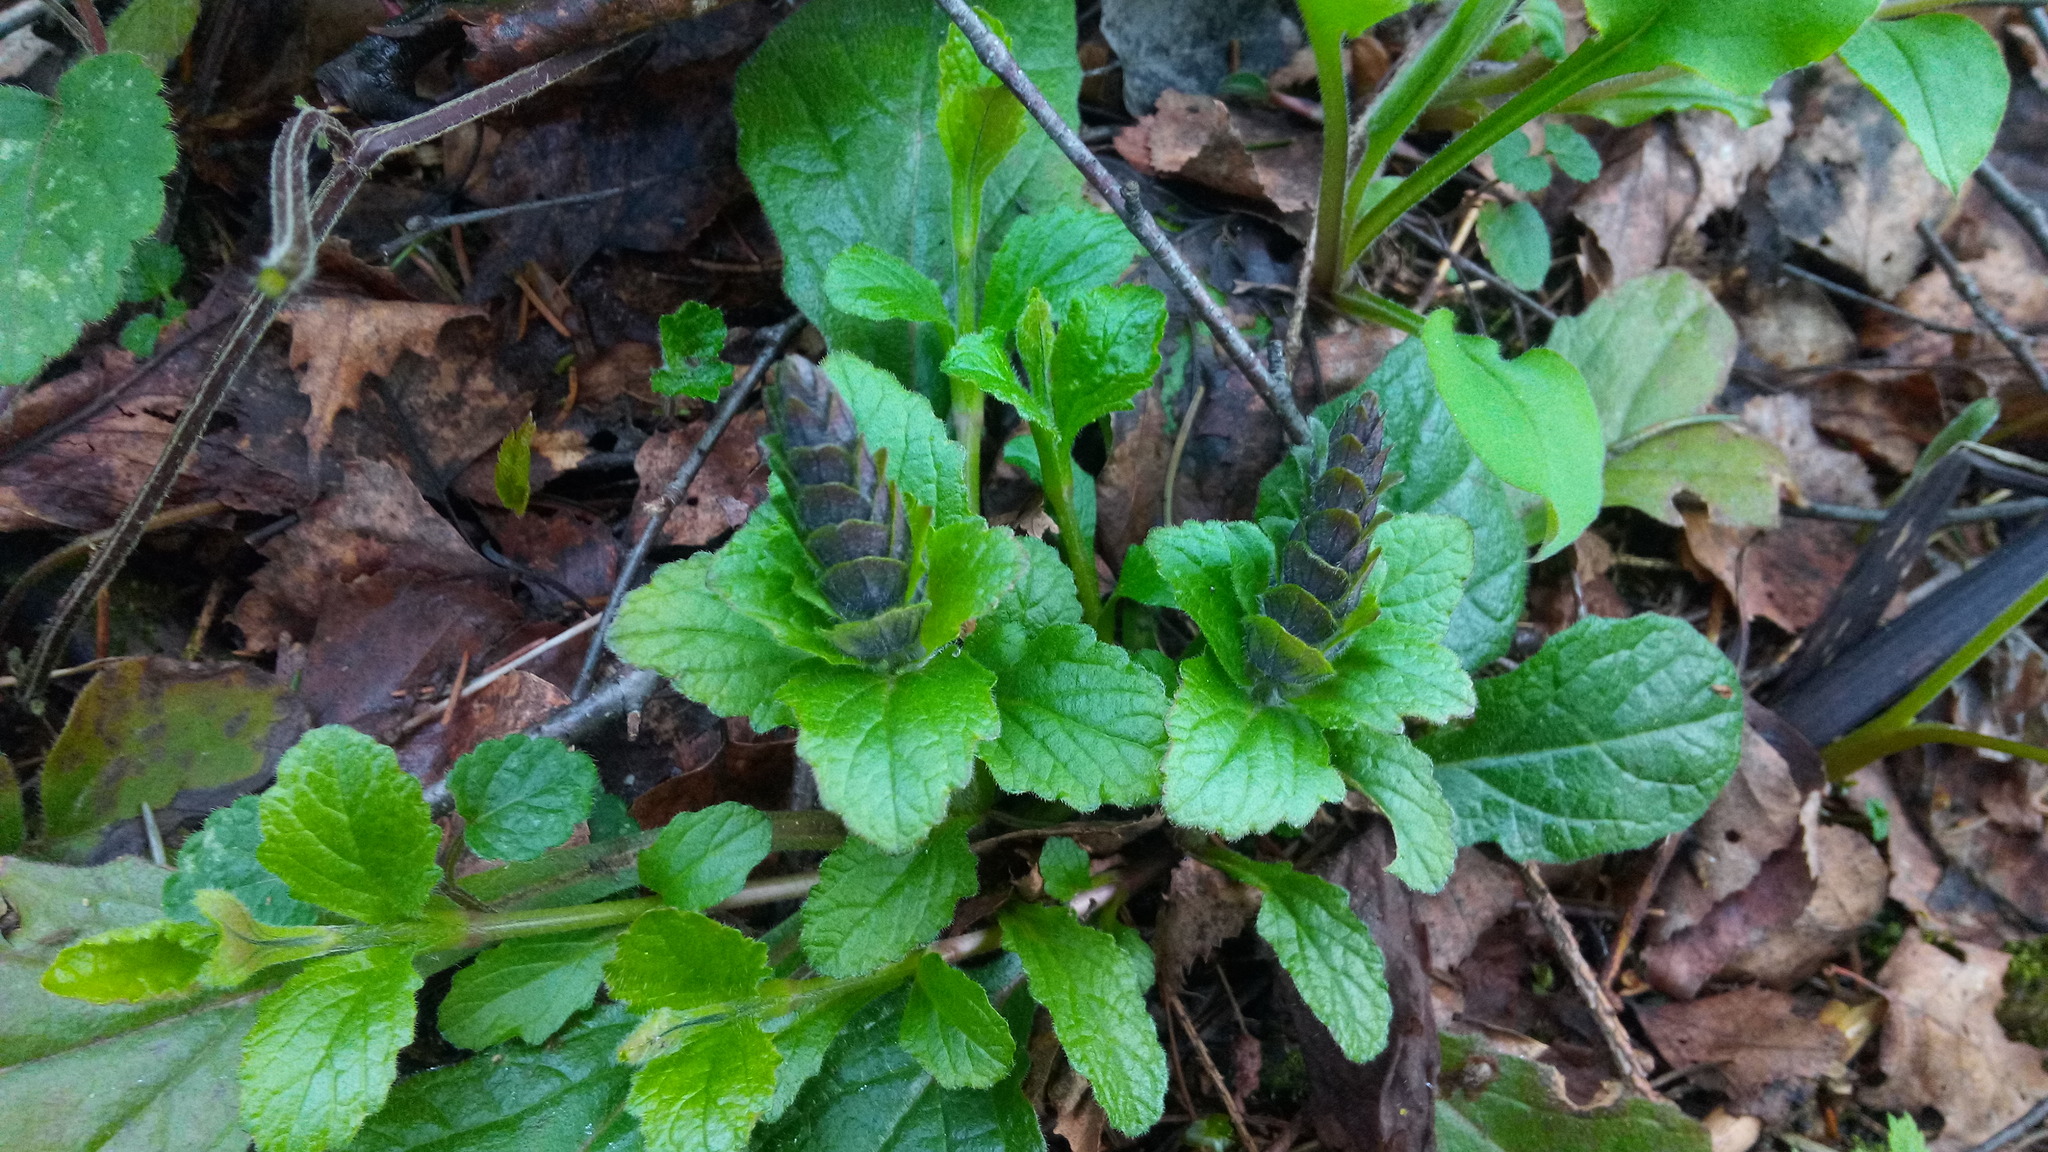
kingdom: Plantae
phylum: Tracheophyta
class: Magnoliopsida
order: Lamiales
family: Lamiaceae
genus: Ajuga
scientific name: Ajuga reptans
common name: Bugle
